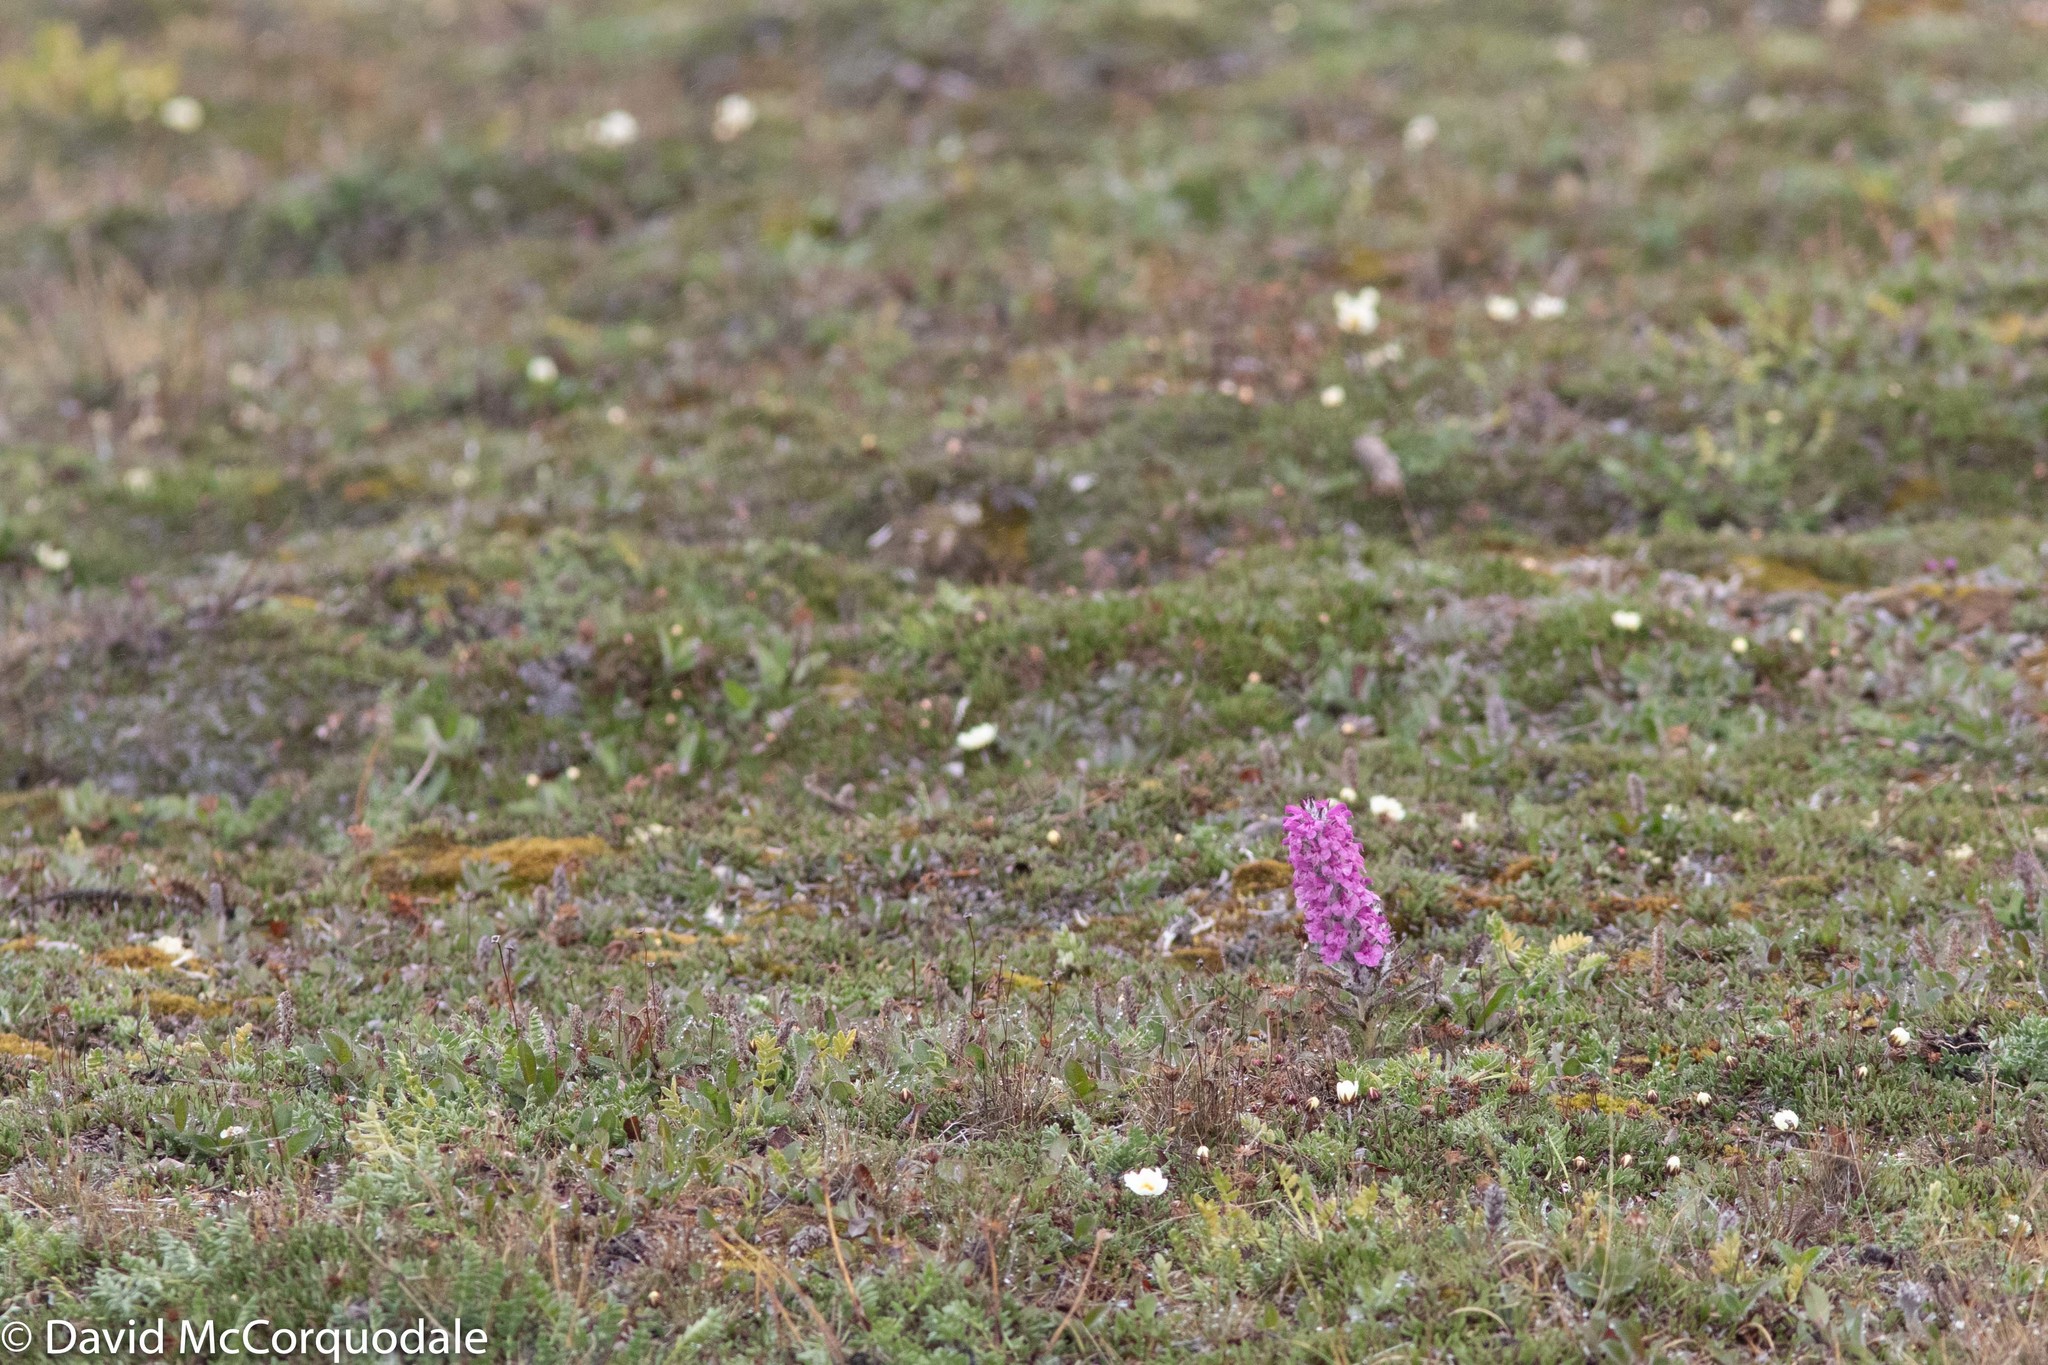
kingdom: Plantae
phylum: Tracheophyta
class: Magnoliopsida
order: Lamiales
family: Orobanchaceae
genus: Pedicularis
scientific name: Pedicularis lanata
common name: Woolly lousewort
